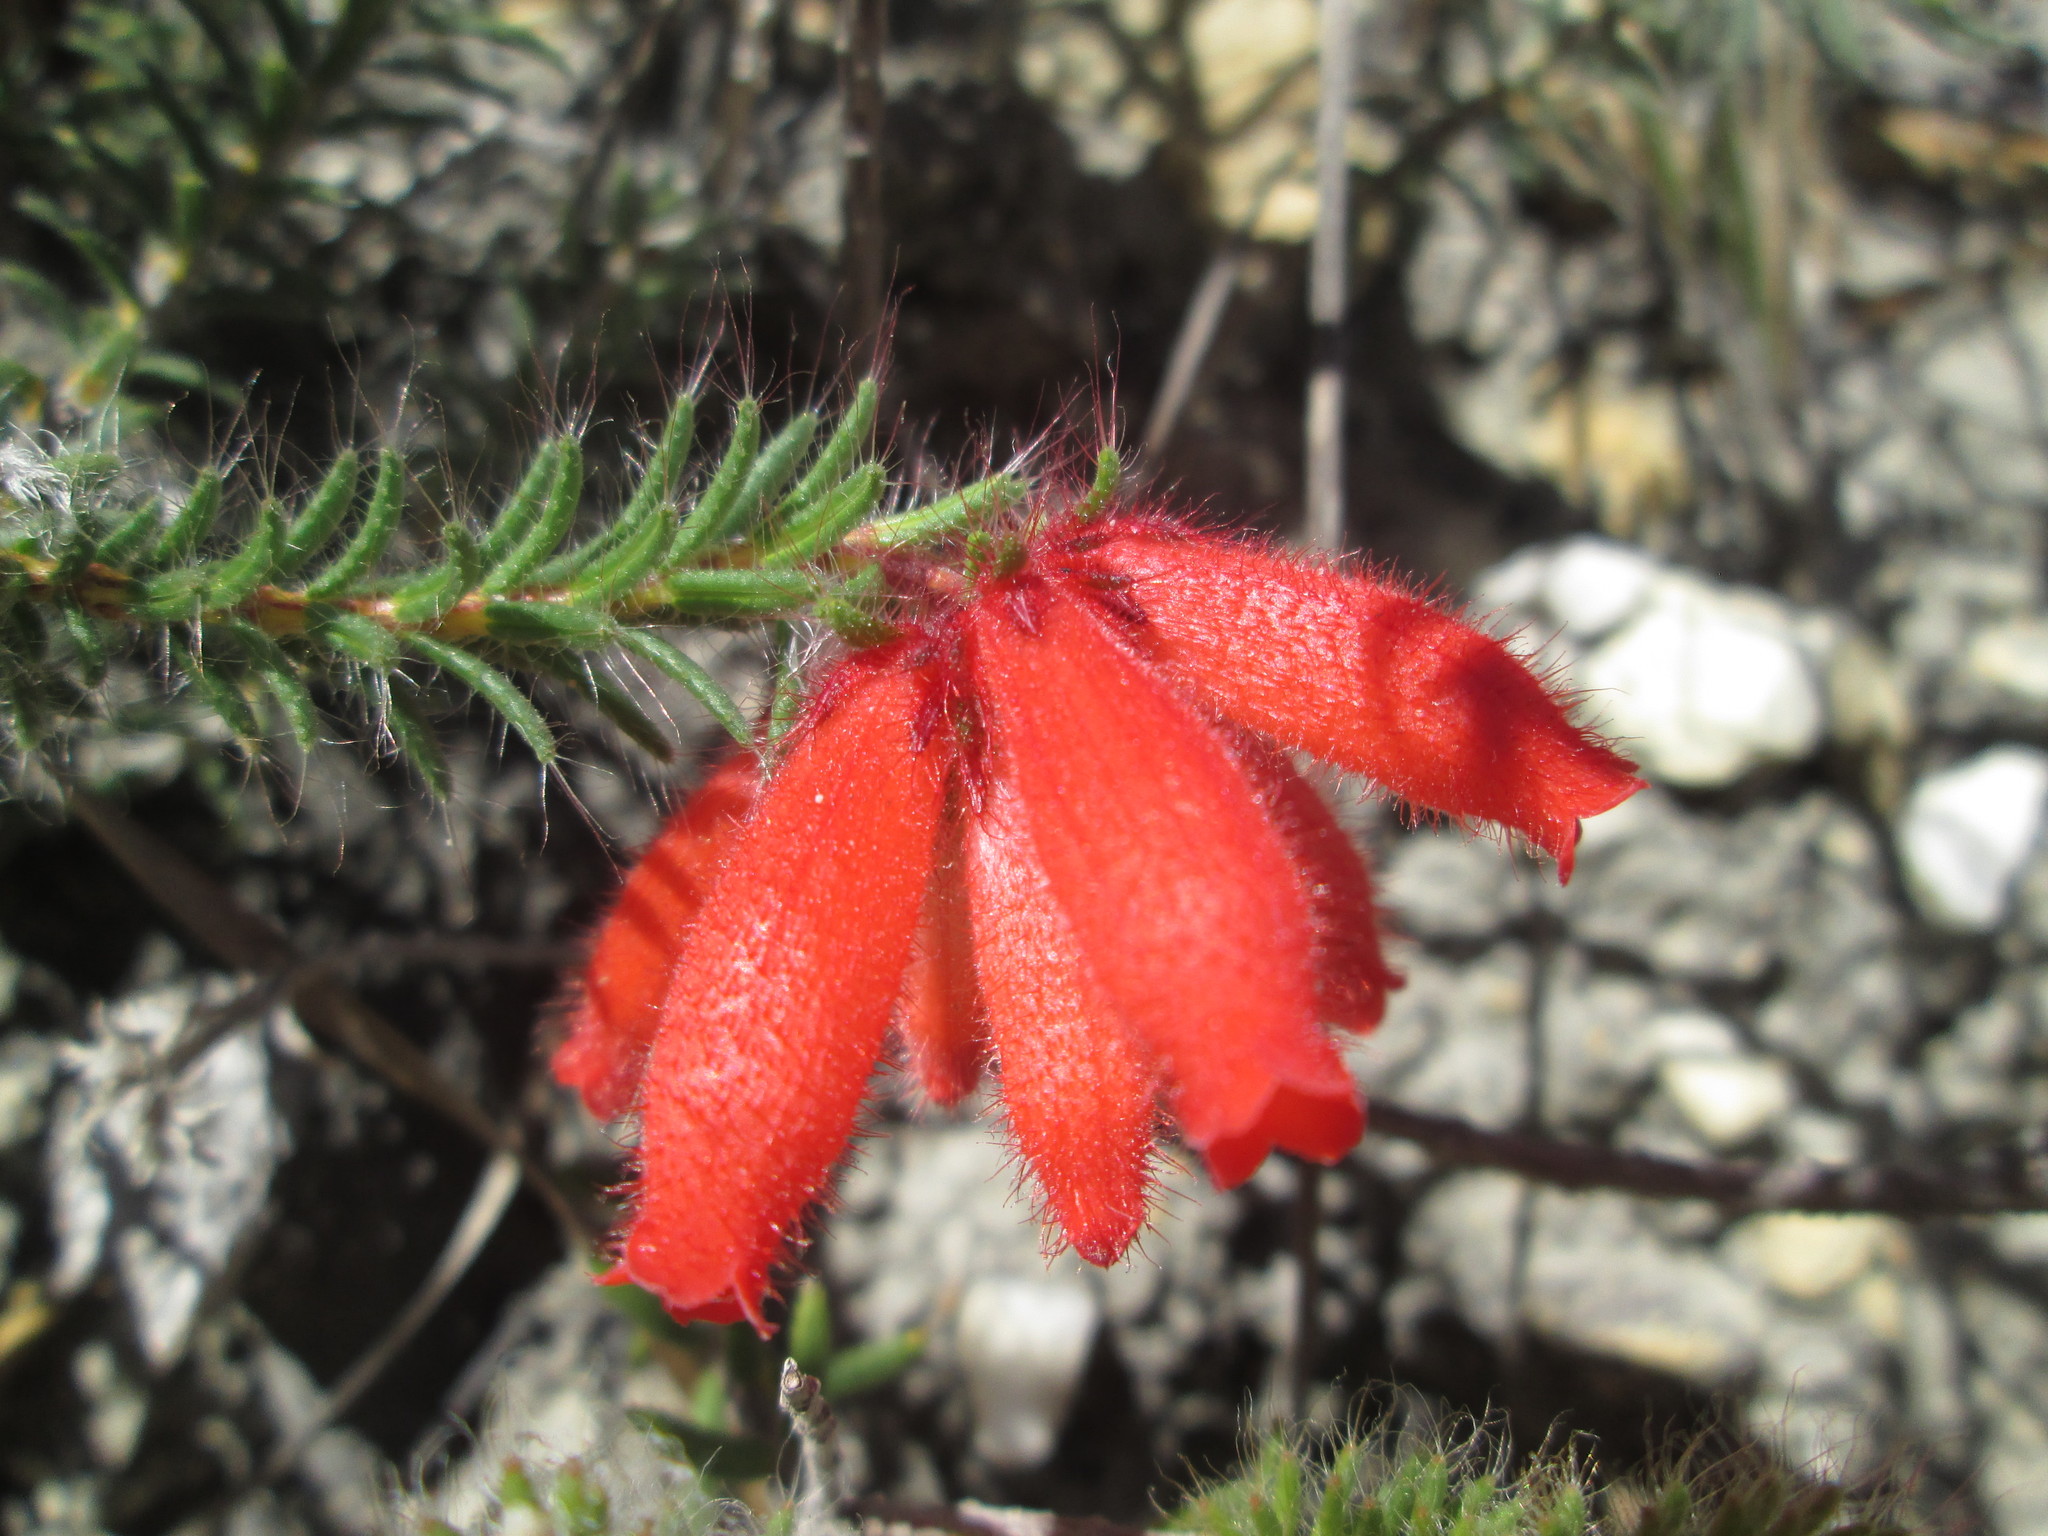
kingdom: Plantae
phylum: Tracheophyta
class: Magnoliopsida
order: Ericales
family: Ericaceae
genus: Erica
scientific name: Erica cerinthoides
